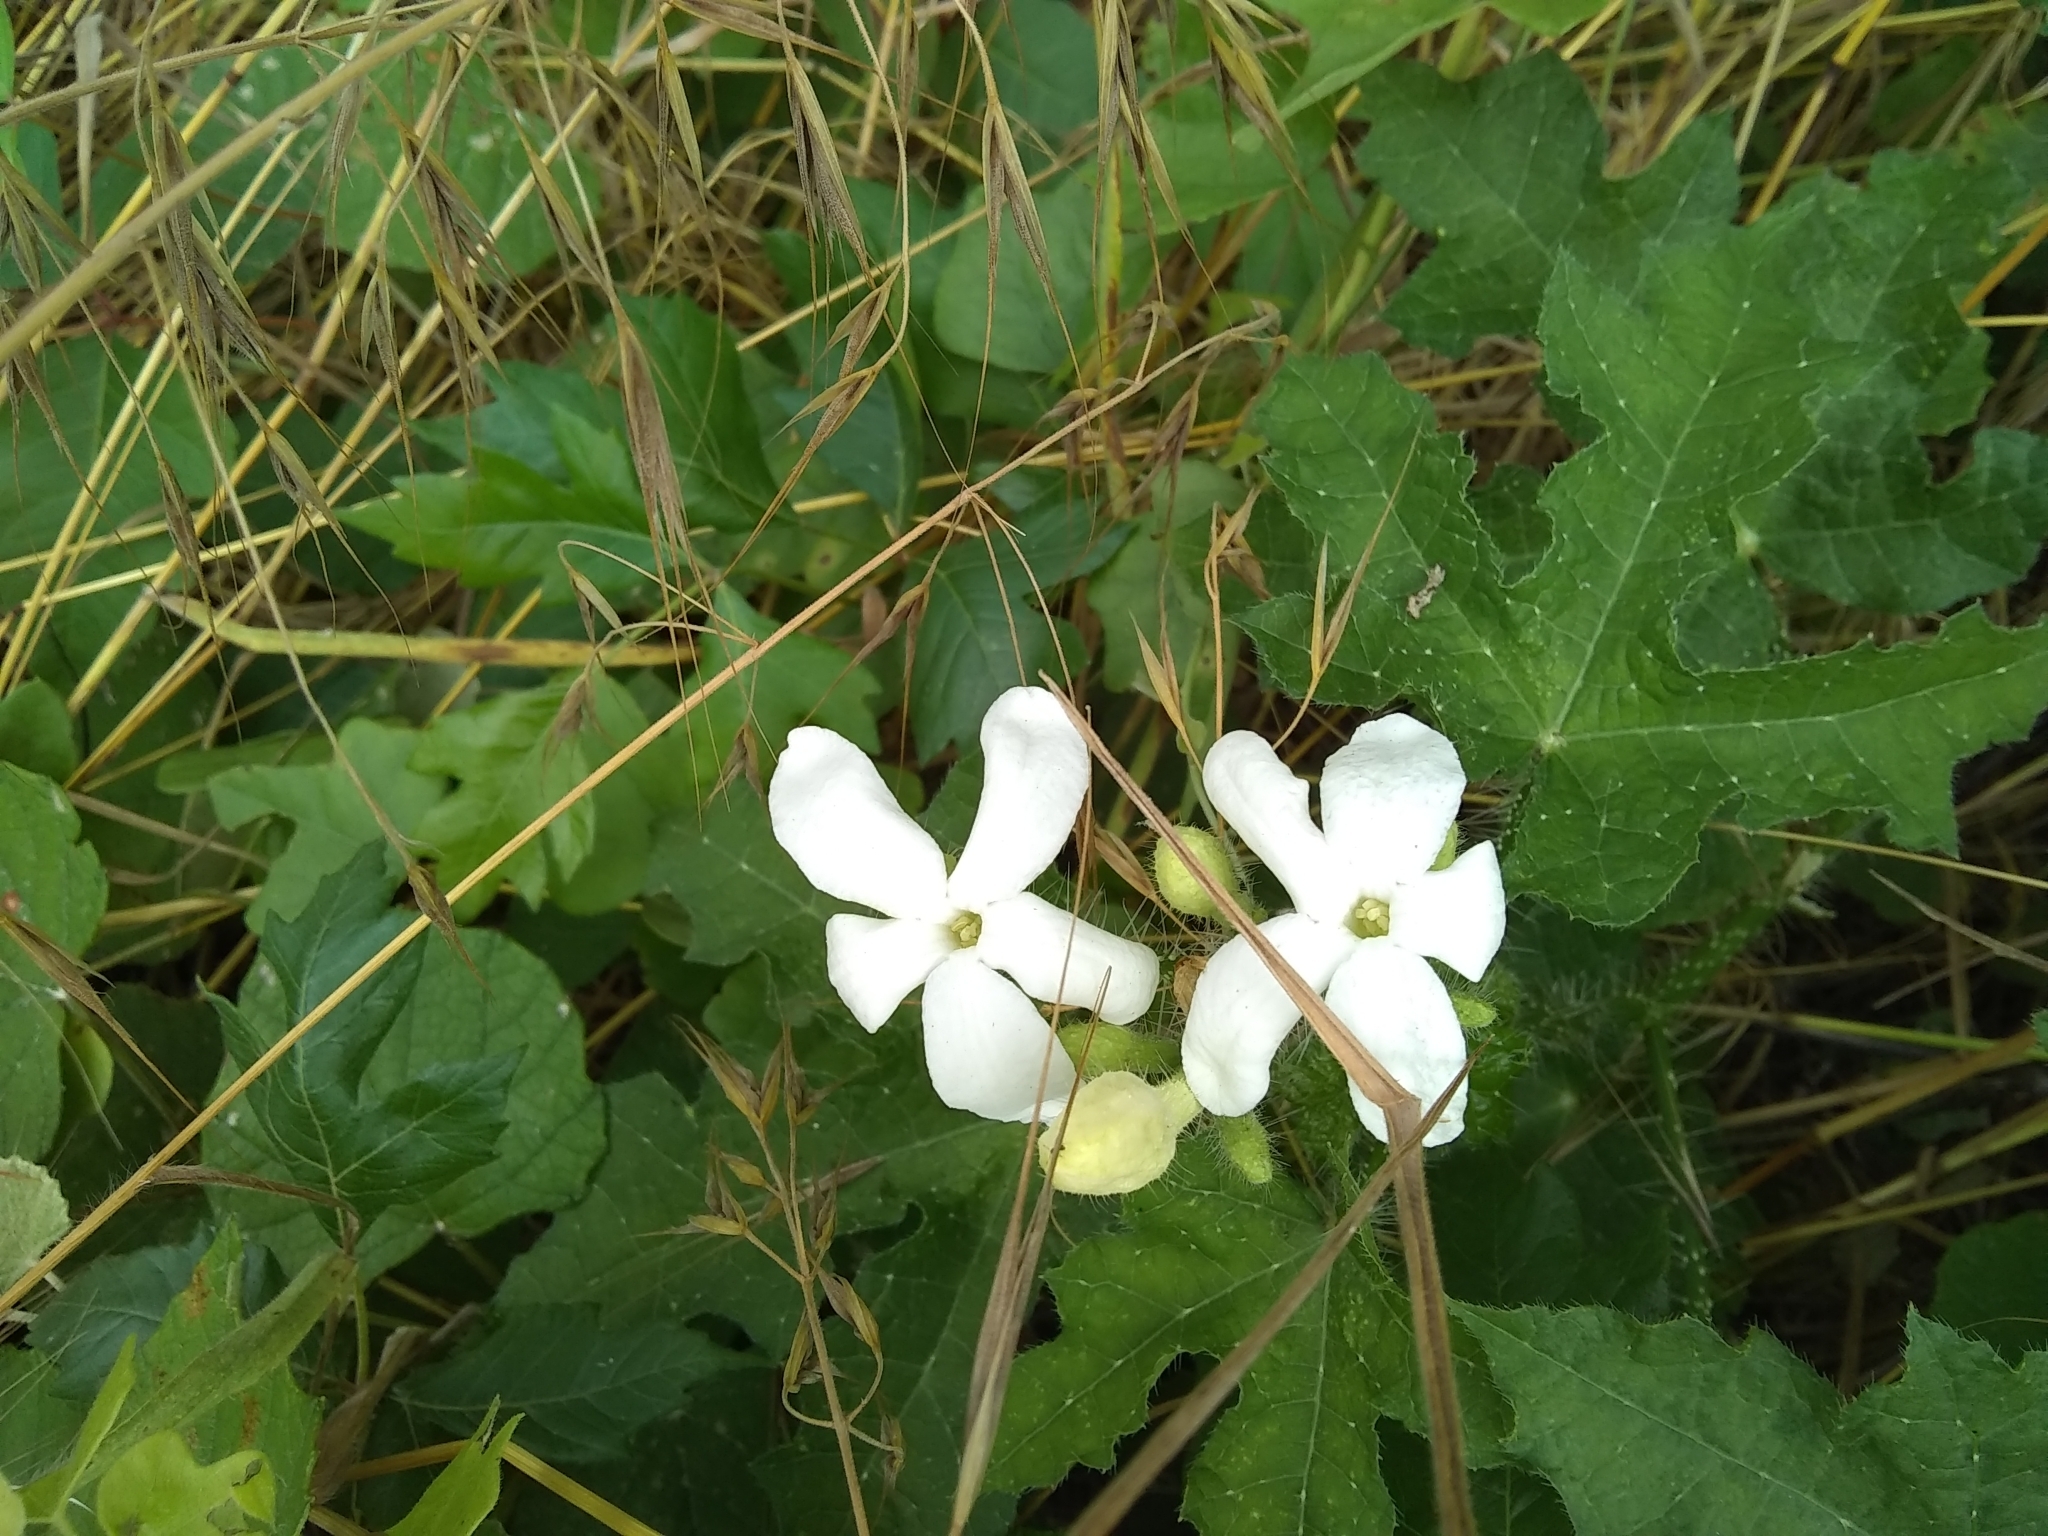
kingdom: Plantae
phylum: Tracheophyta
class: Magnoliopsida
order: Malpighiales
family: Euphorbiaceae
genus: Cnidoscolus
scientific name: Cnidoscolus texanus
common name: Texas bull-nettle
